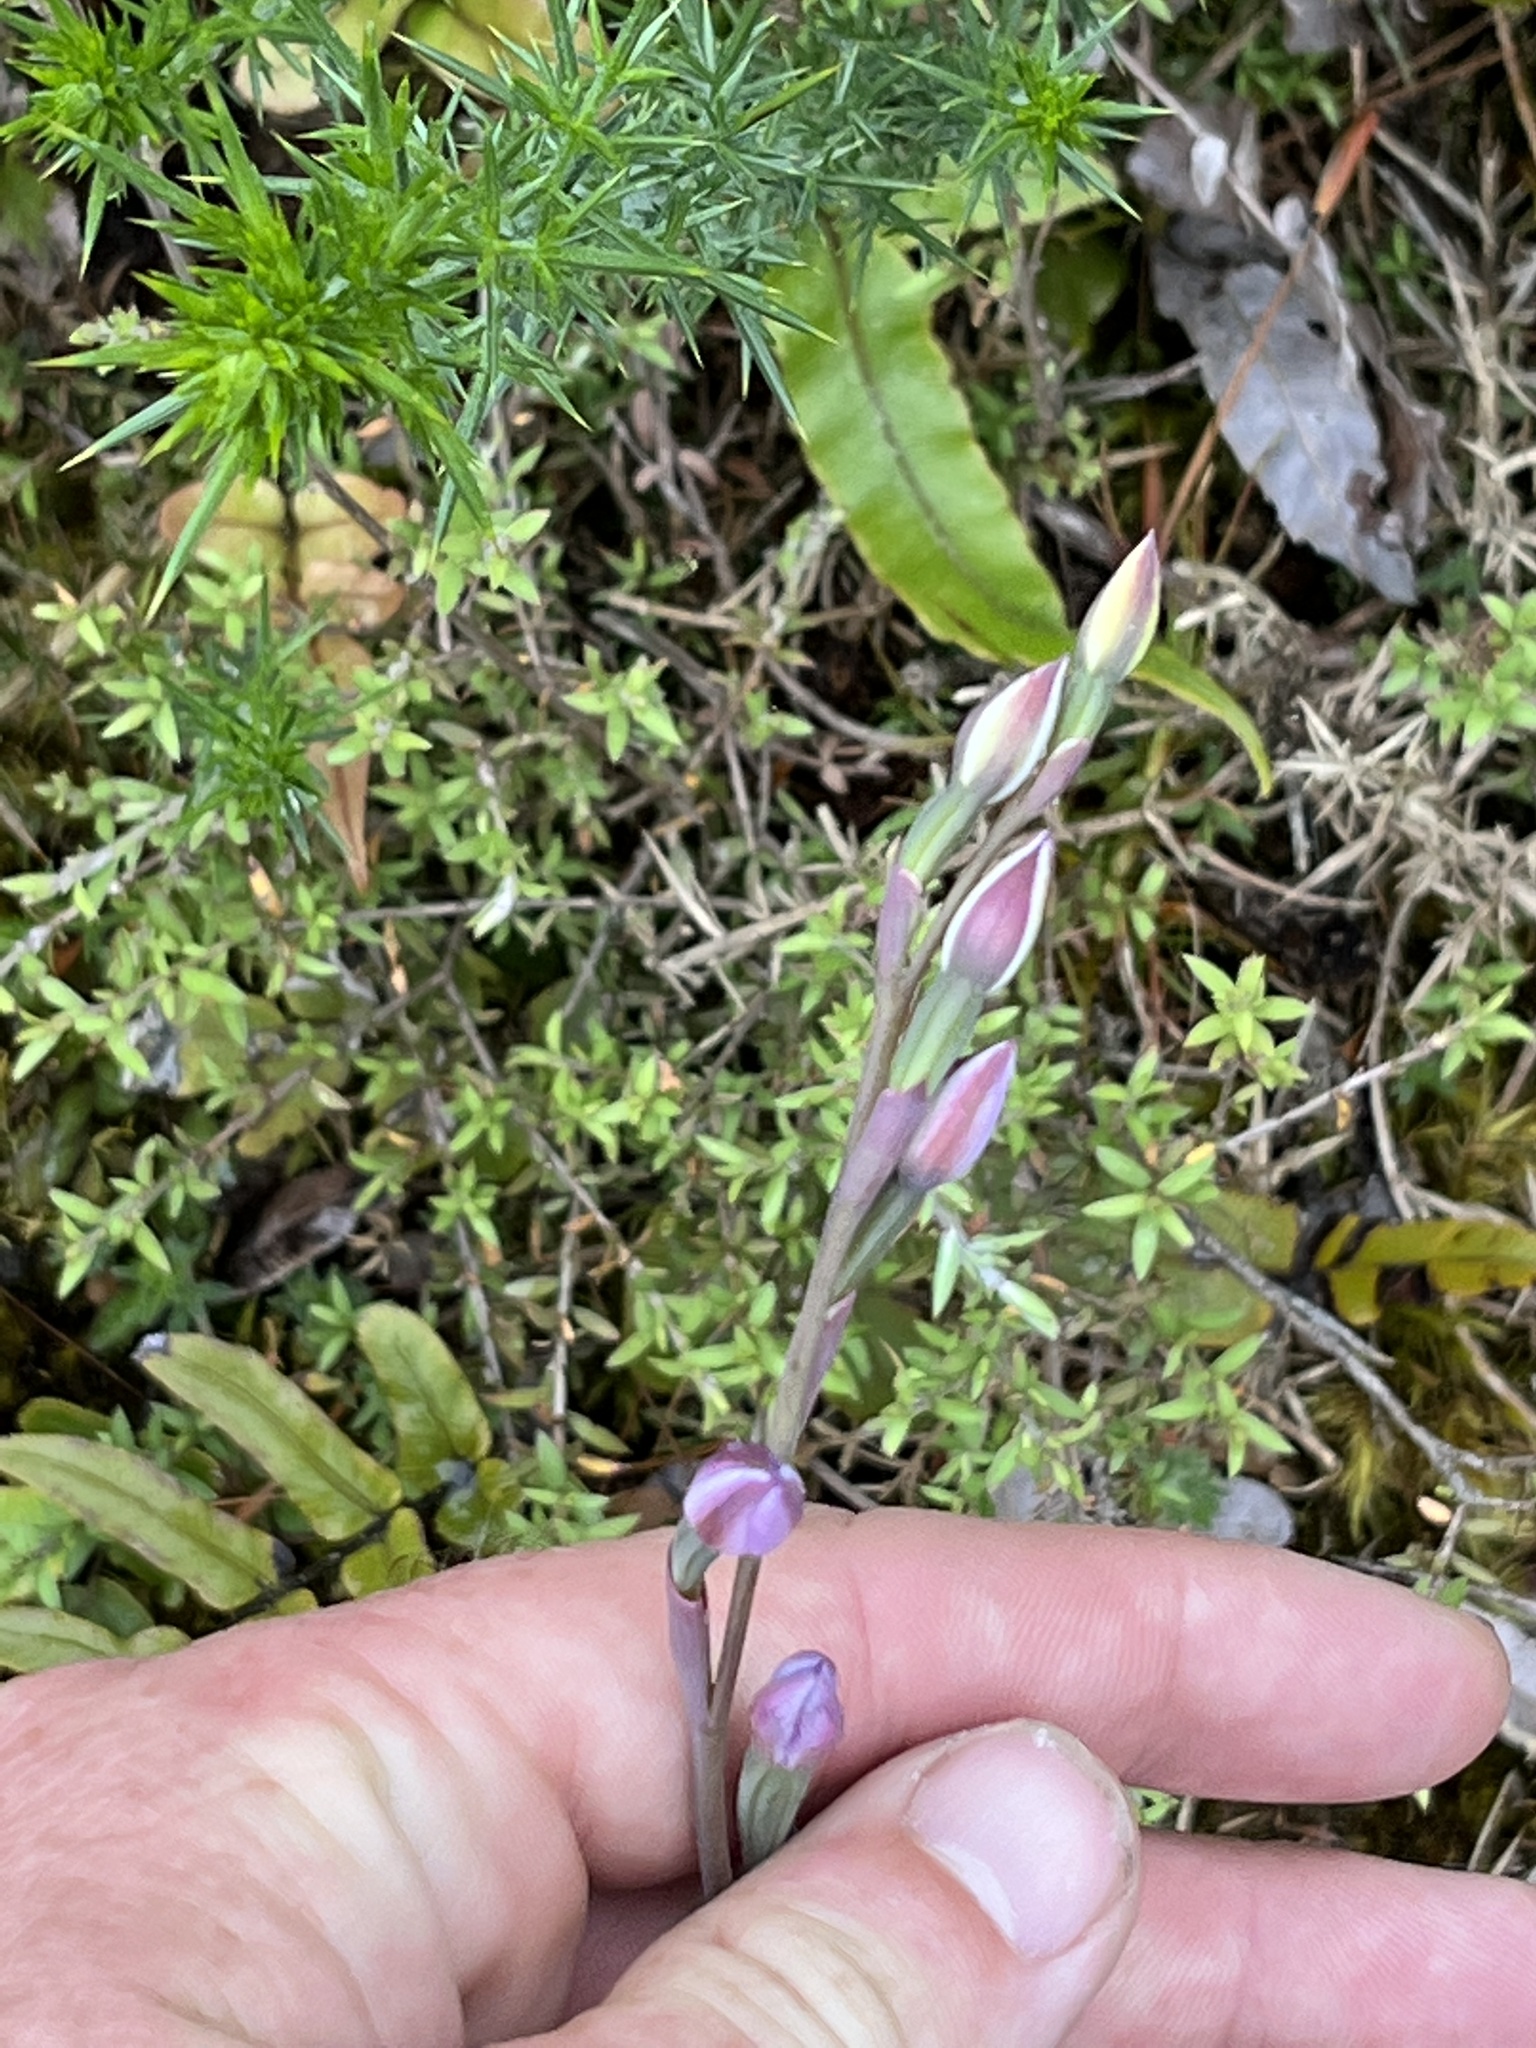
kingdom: Plantae
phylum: Tracheophyta
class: Liliopsida
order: Asparagales
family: Orchidaceae
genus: Thelymitra
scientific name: Thelymitra pulchella
